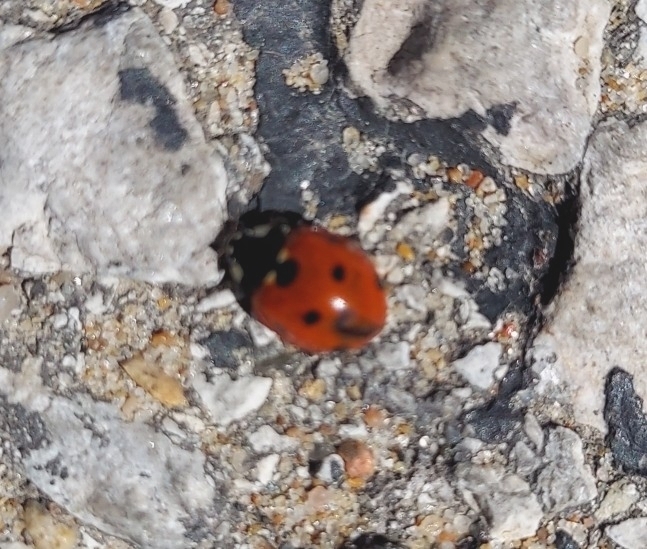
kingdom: Animalia
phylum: Arthropoda
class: Insecta
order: Coleoptera
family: Coccinellidae
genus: Coccinella
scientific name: Coccinella septempunctata
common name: Sevenspotted lady beetle
